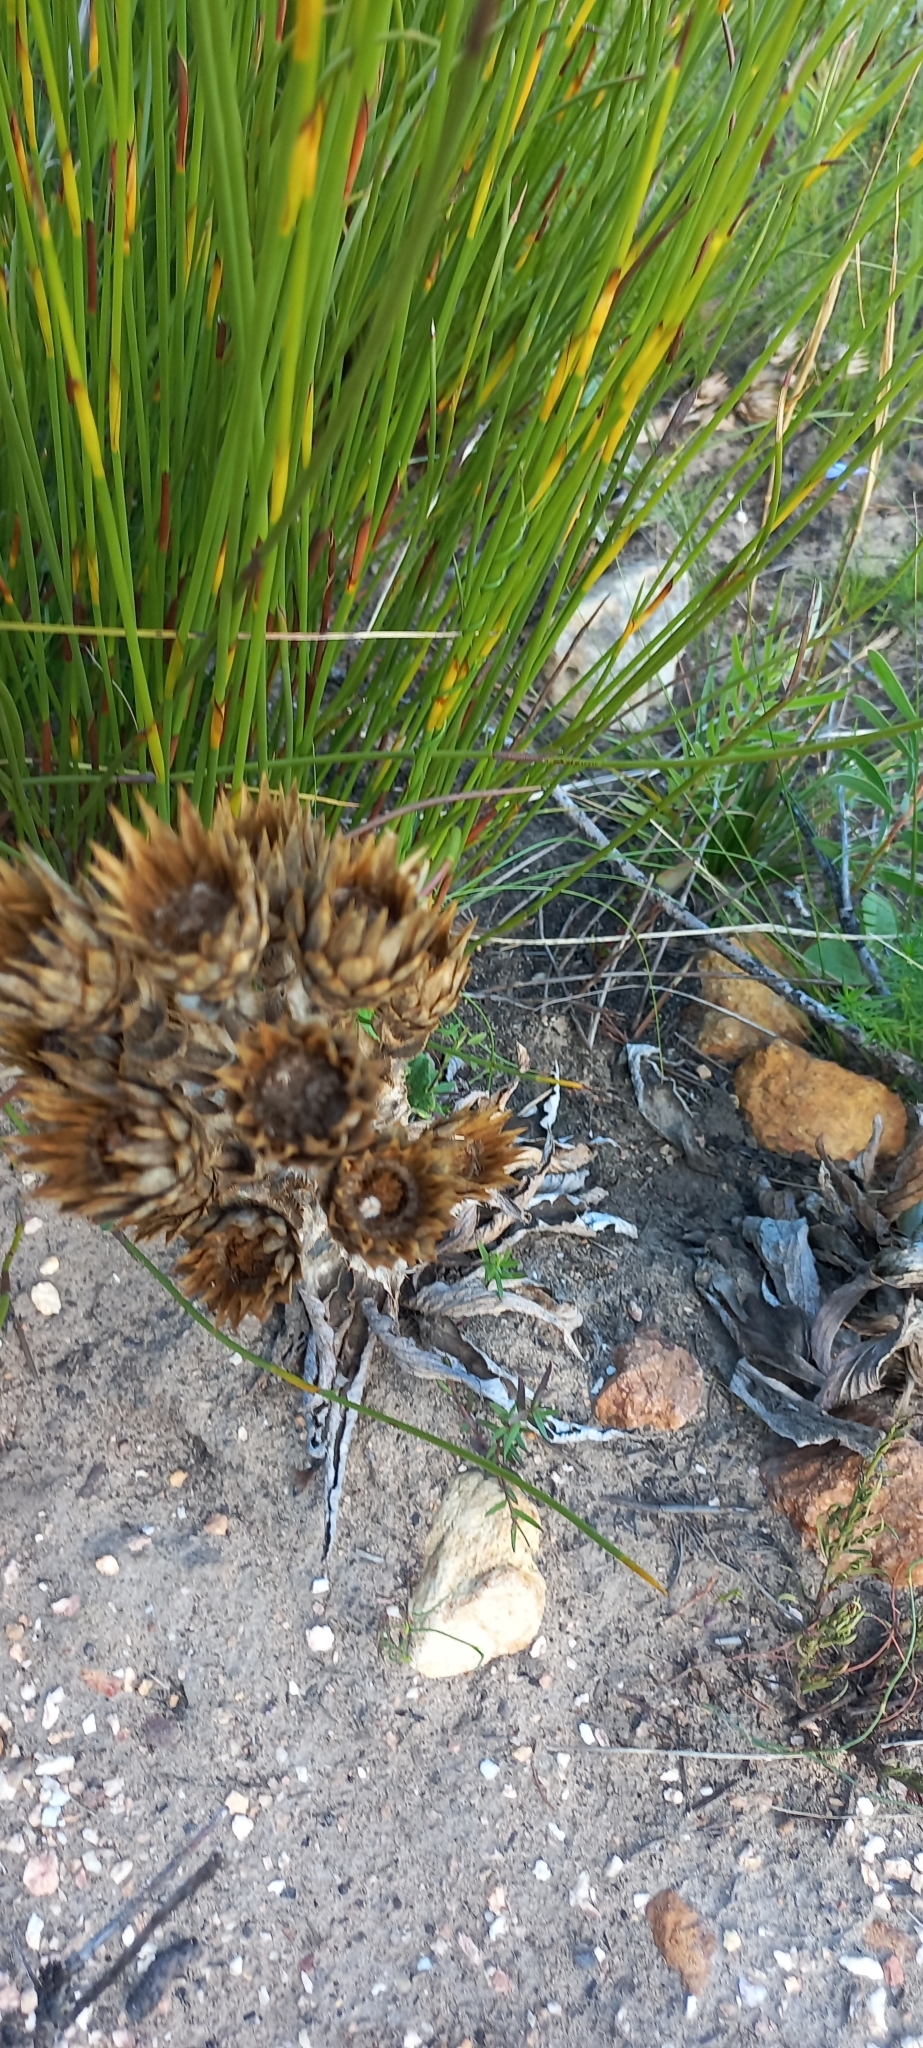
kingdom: Plantae
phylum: Tracheophyta
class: Magnoliopsida
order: Asterales
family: Asteraceae
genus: Berkheya
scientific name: Berkheya herbacea
